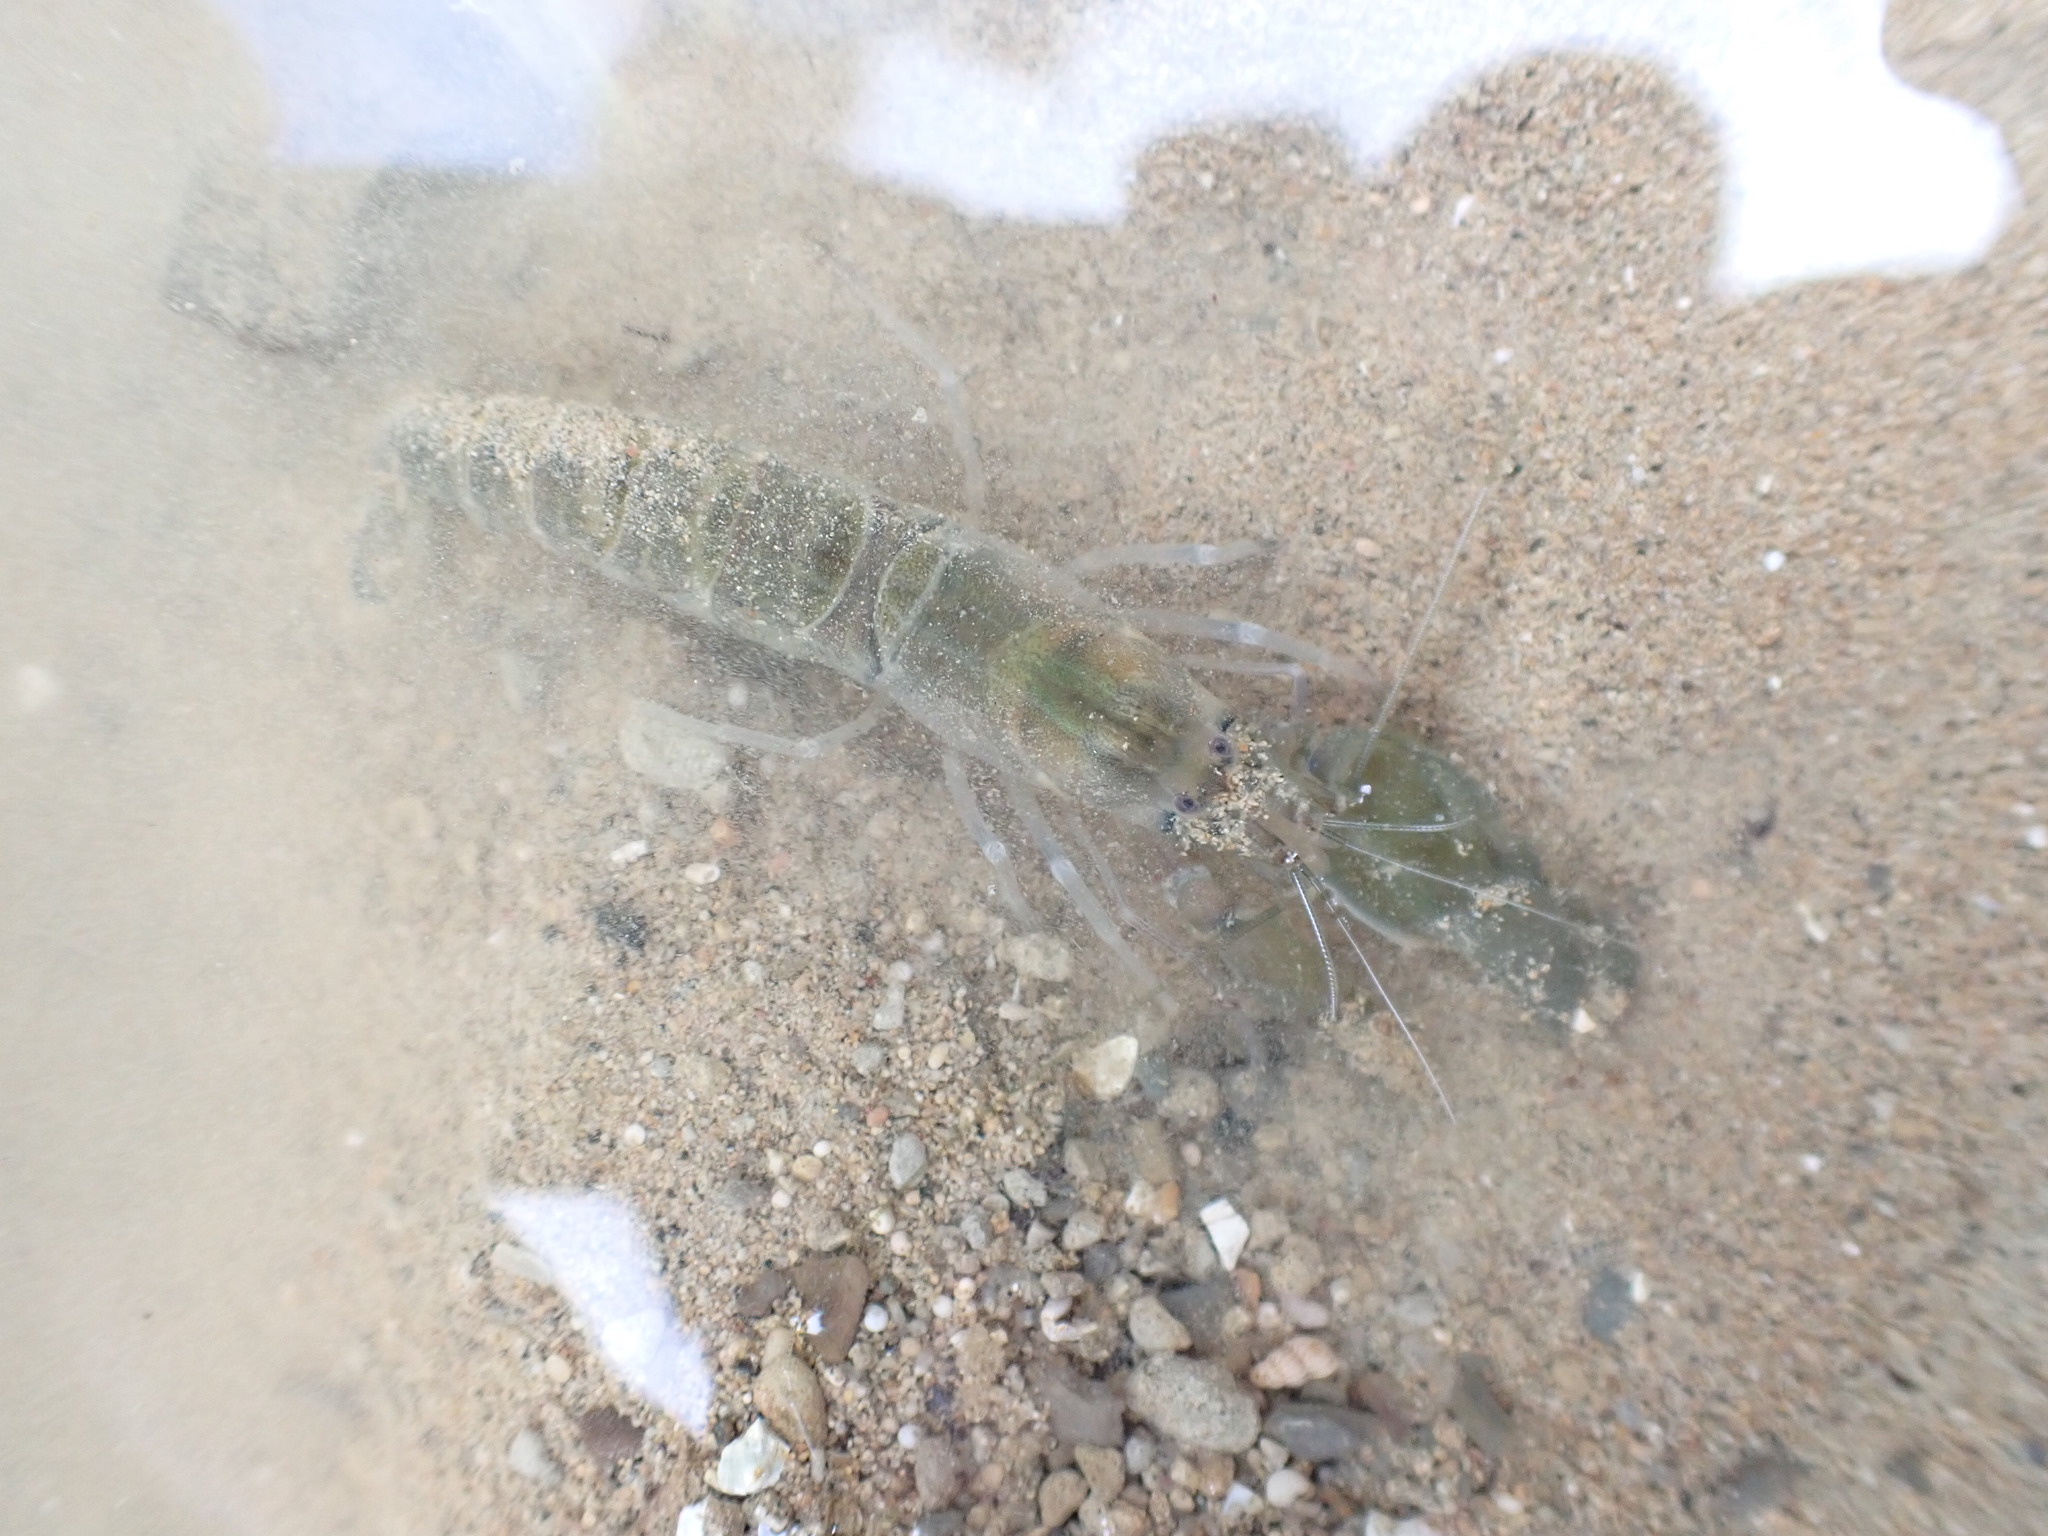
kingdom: Animalia
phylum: Arthropoda
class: Malacostraca
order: Decapoda
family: Alpheidae
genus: Alpheus
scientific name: Alpheus richardsoni
